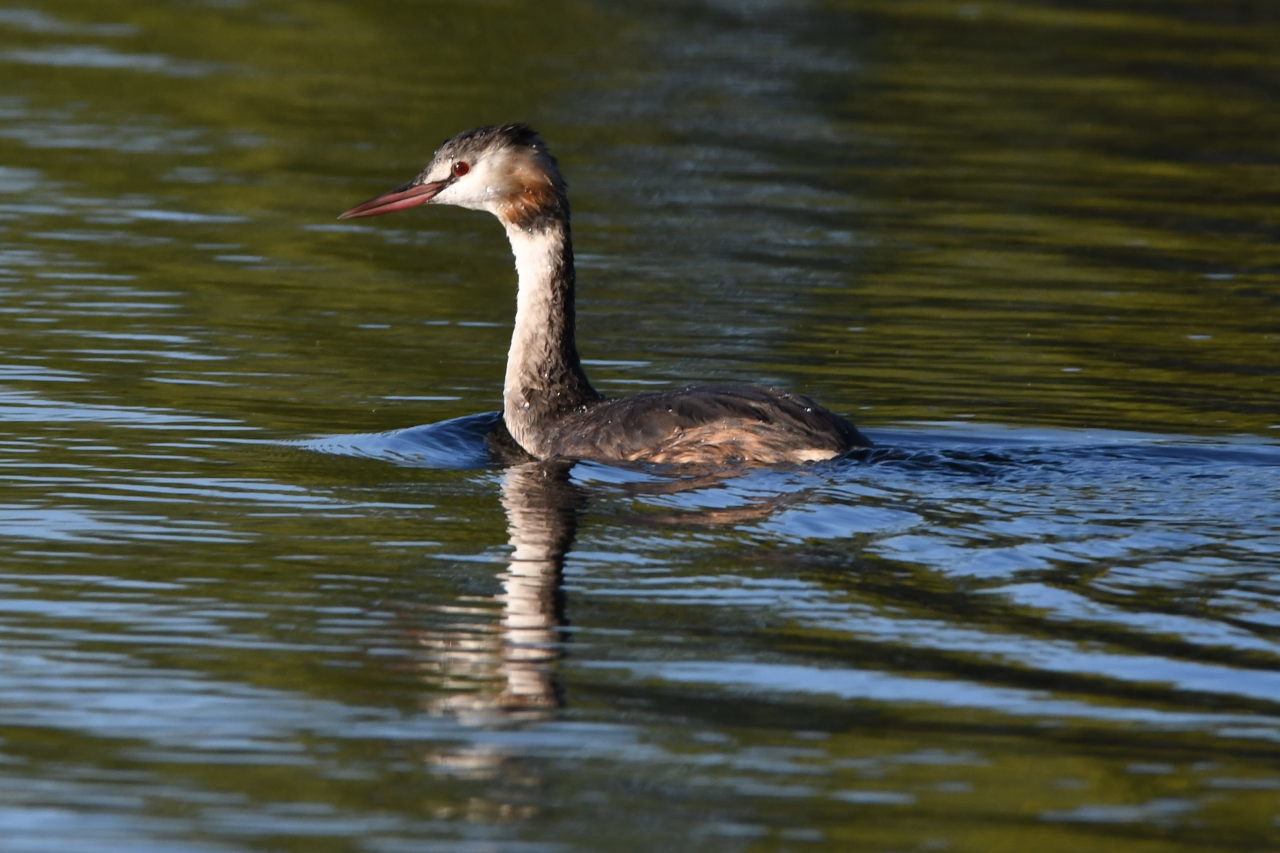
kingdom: Animalia
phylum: Chordata
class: Aves
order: Podicipediformes
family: Podicipedidae
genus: Podiceps
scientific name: Podiceps cristatus
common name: Great crested grebe
